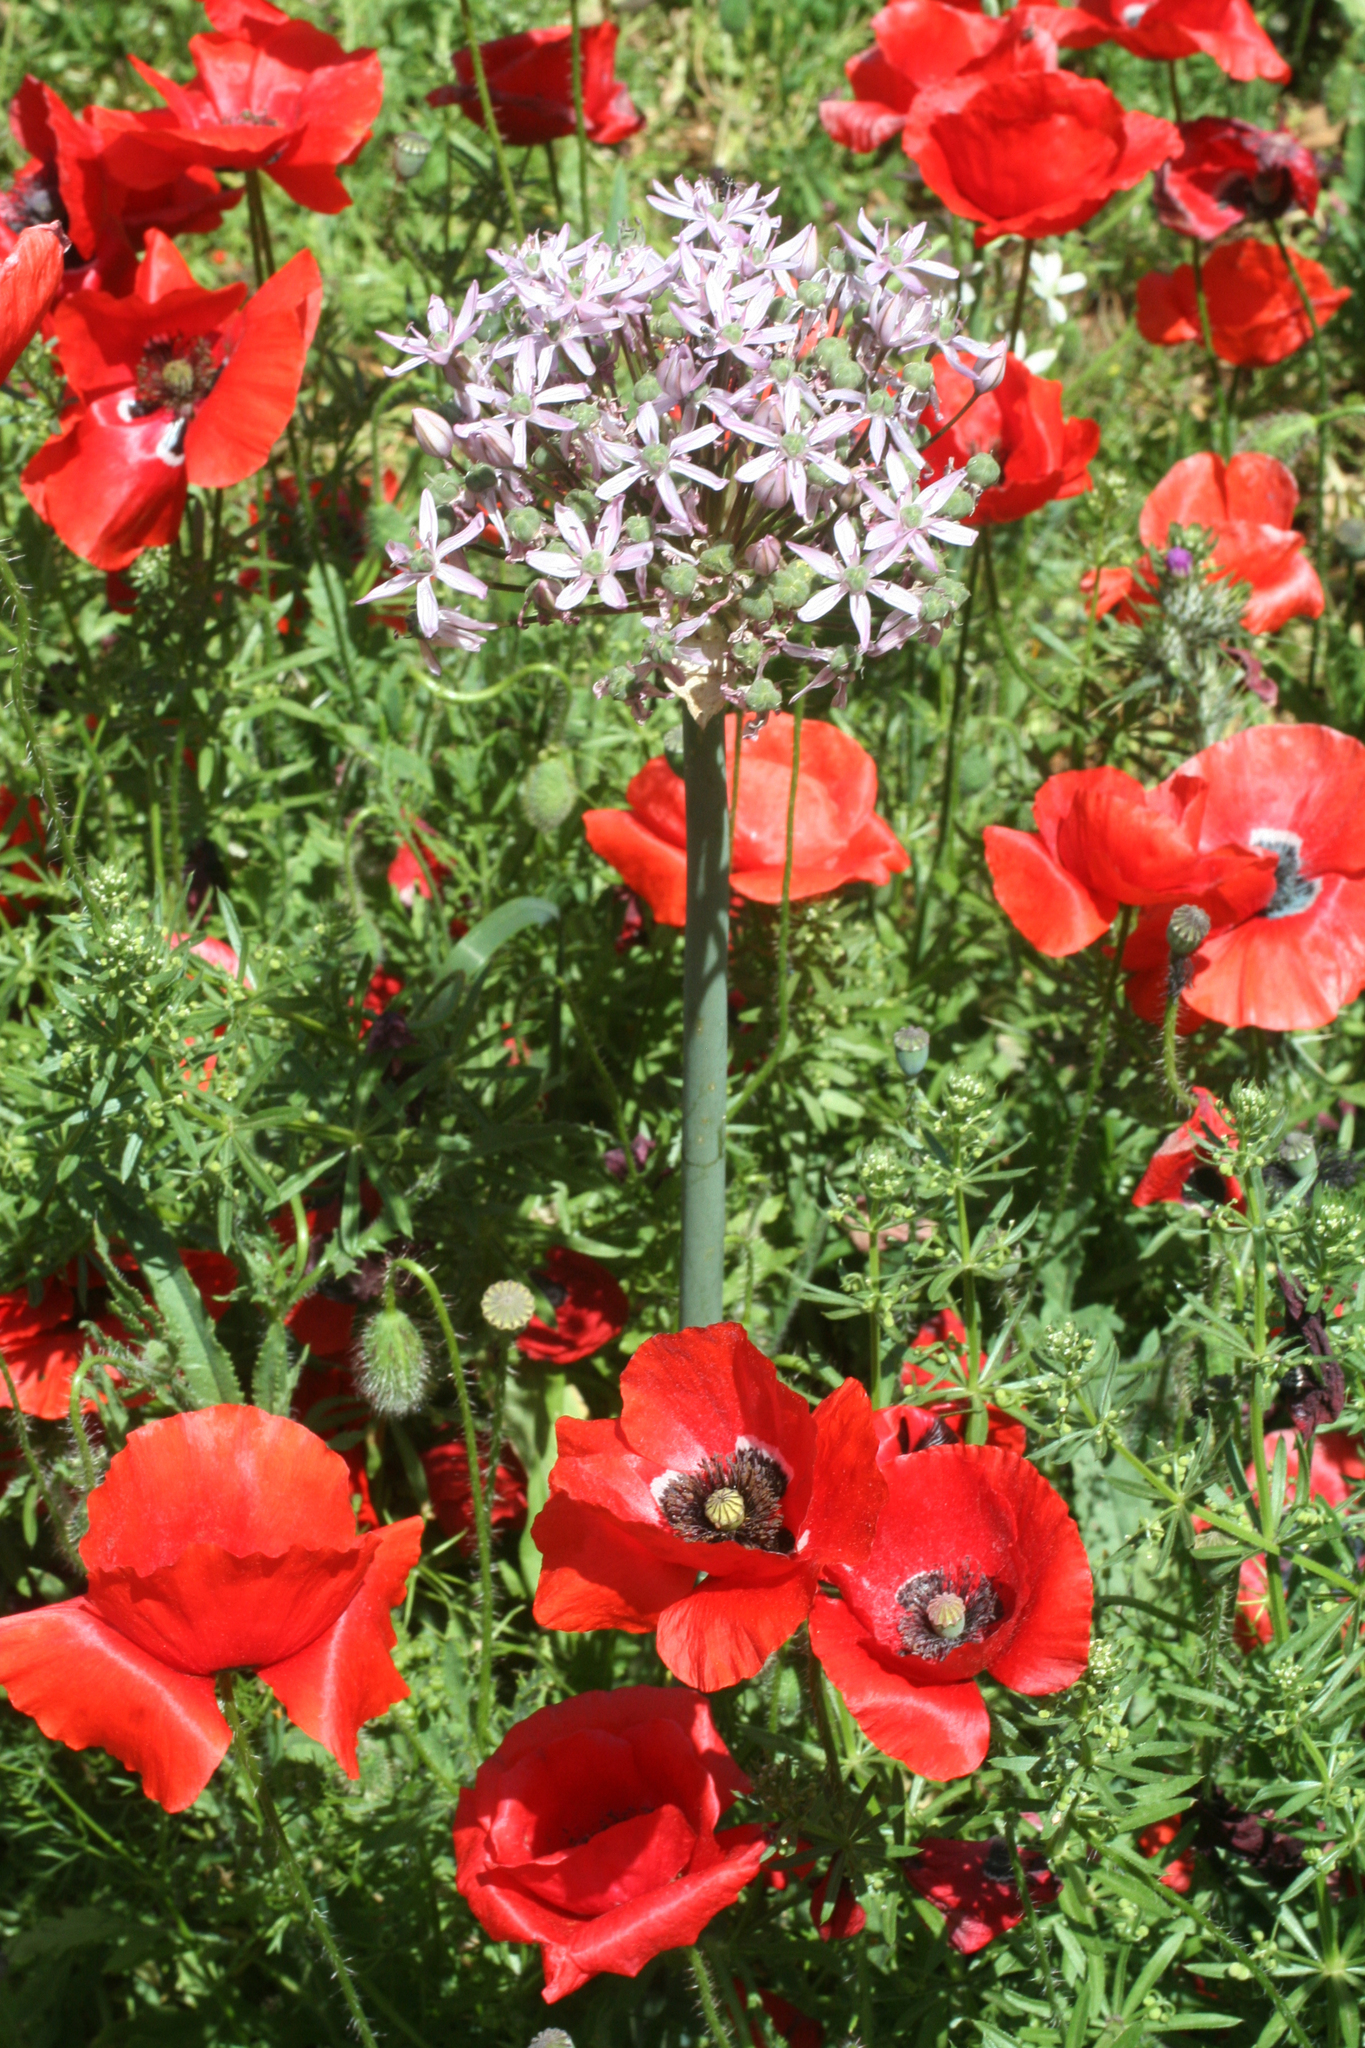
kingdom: Plantae
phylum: Tracheophyta
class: Liliopsida
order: Asparagales
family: Amaryllidaceae
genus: Allium
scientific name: Allium nigrum
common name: Black garlic
